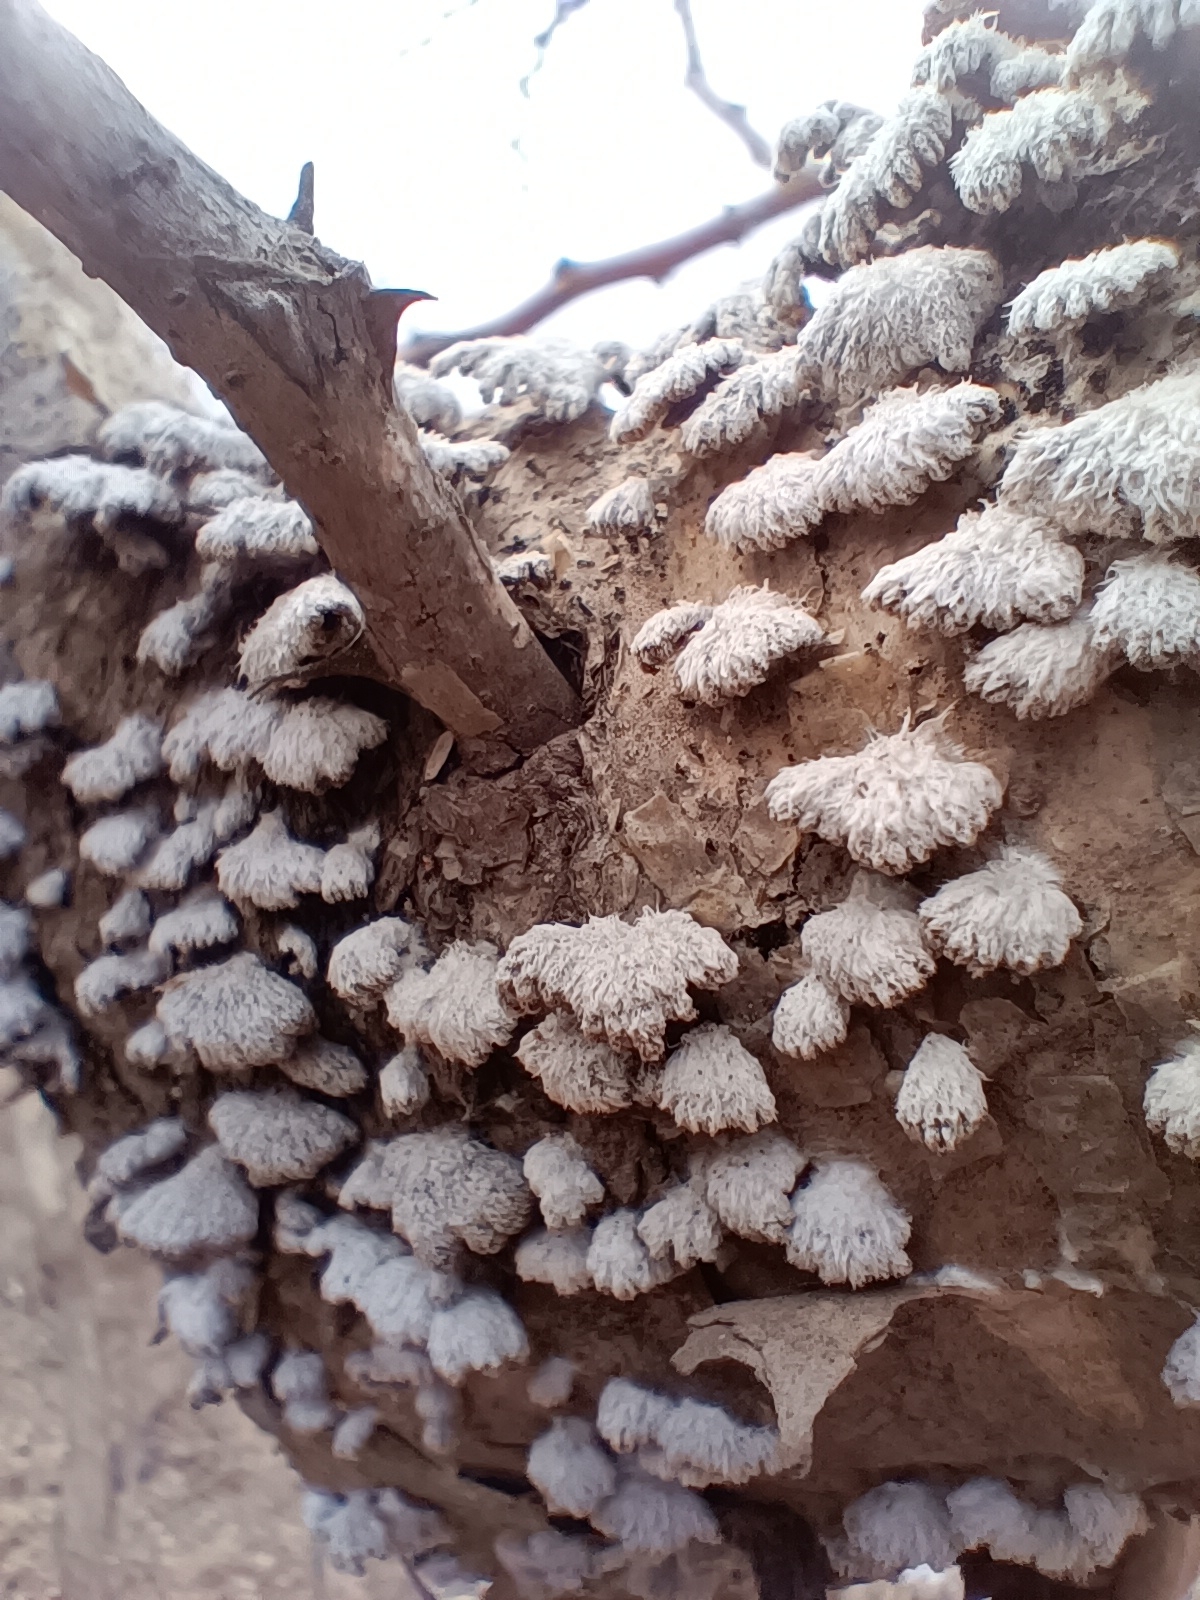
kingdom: Fungi
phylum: Basidiomycota
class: Agaricomycetes
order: Agaricales
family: Schizophyllaceae
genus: Schizophyllum
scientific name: Schizophyllum commune
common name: Common porecrust
